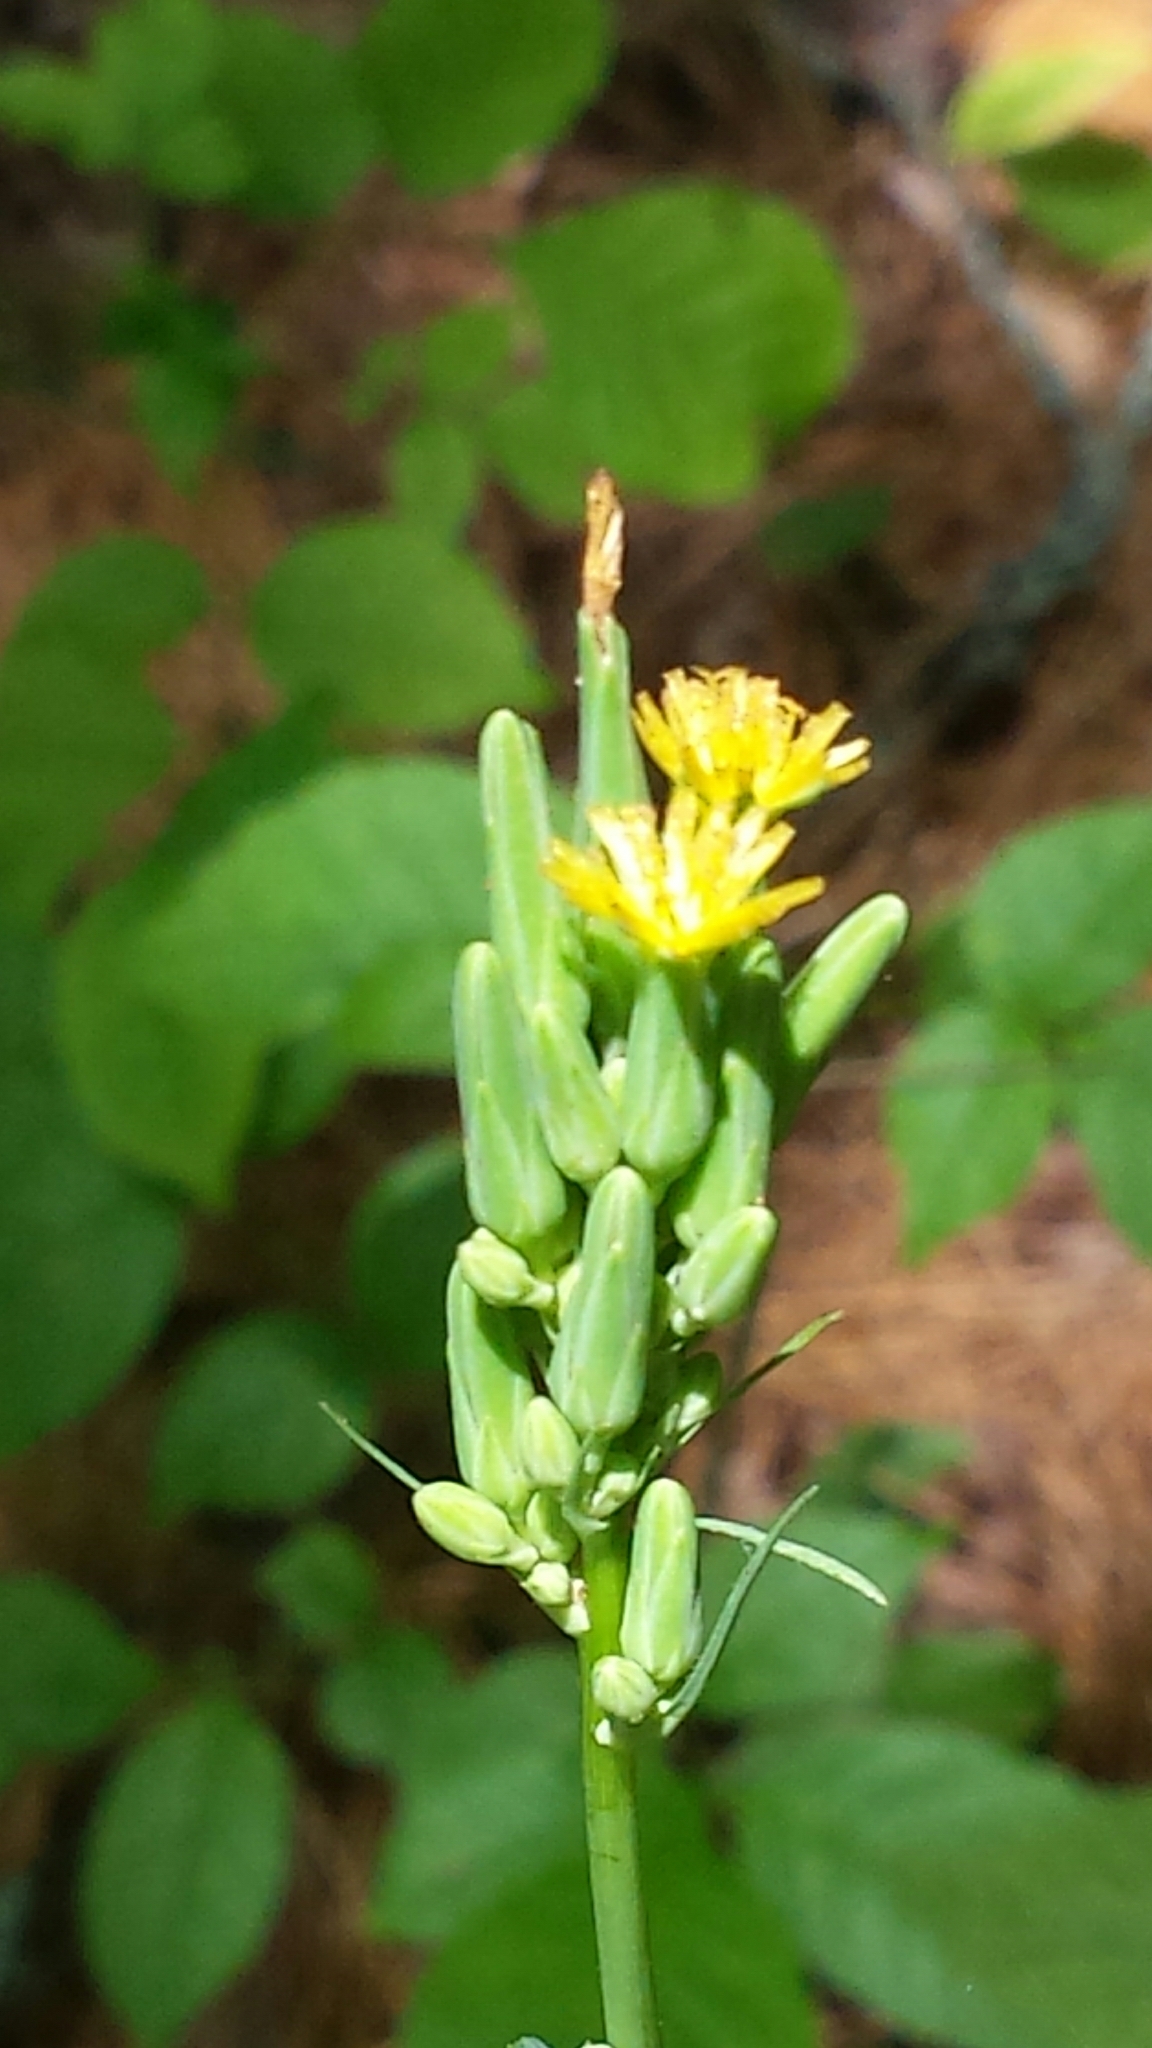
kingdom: Plantae
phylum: Tracheophyta
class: Magnoliopsida
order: Asterales
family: Asteraceae
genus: Lactuca
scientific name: Lactuca canadensis
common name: Canada lettuce
